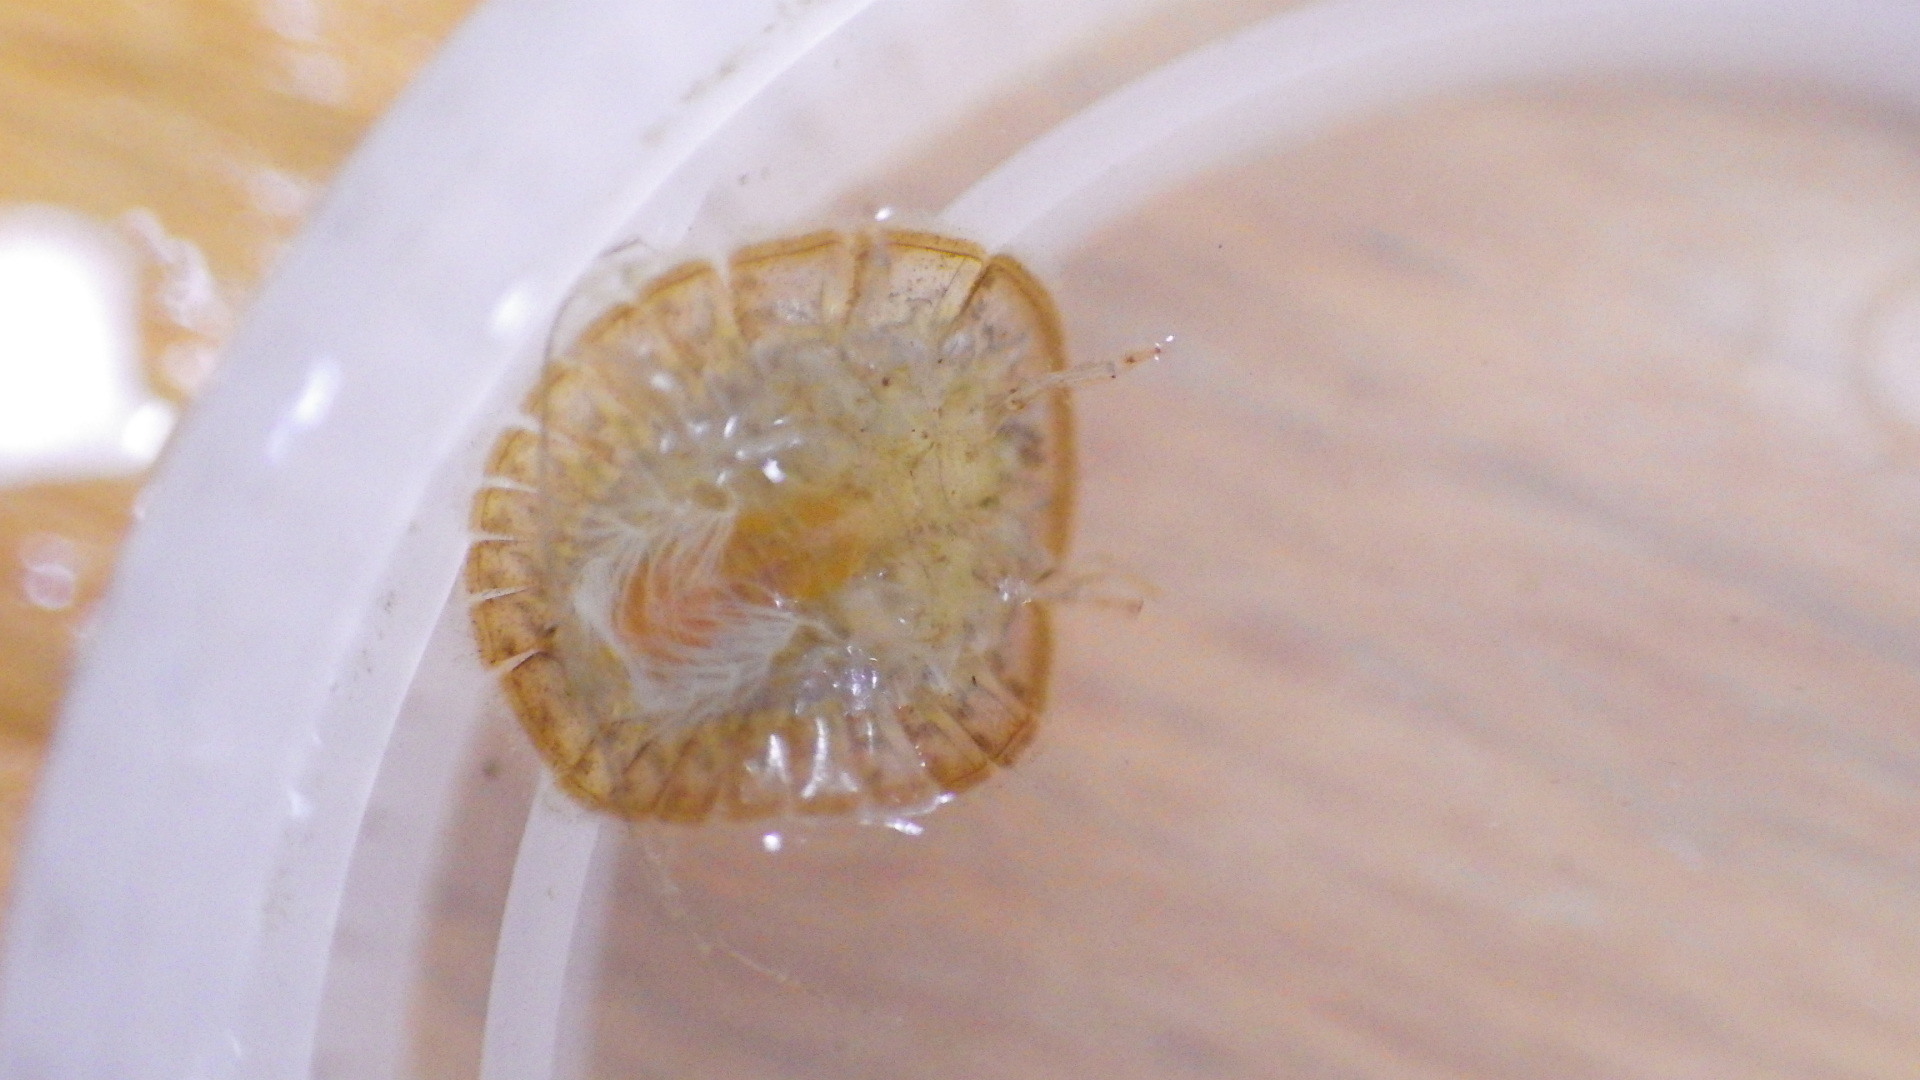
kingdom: Animalia
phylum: Arthropoda
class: Insecta
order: Coleoptera
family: Psephenidae
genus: Psephenus
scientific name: Psephenus herricki
